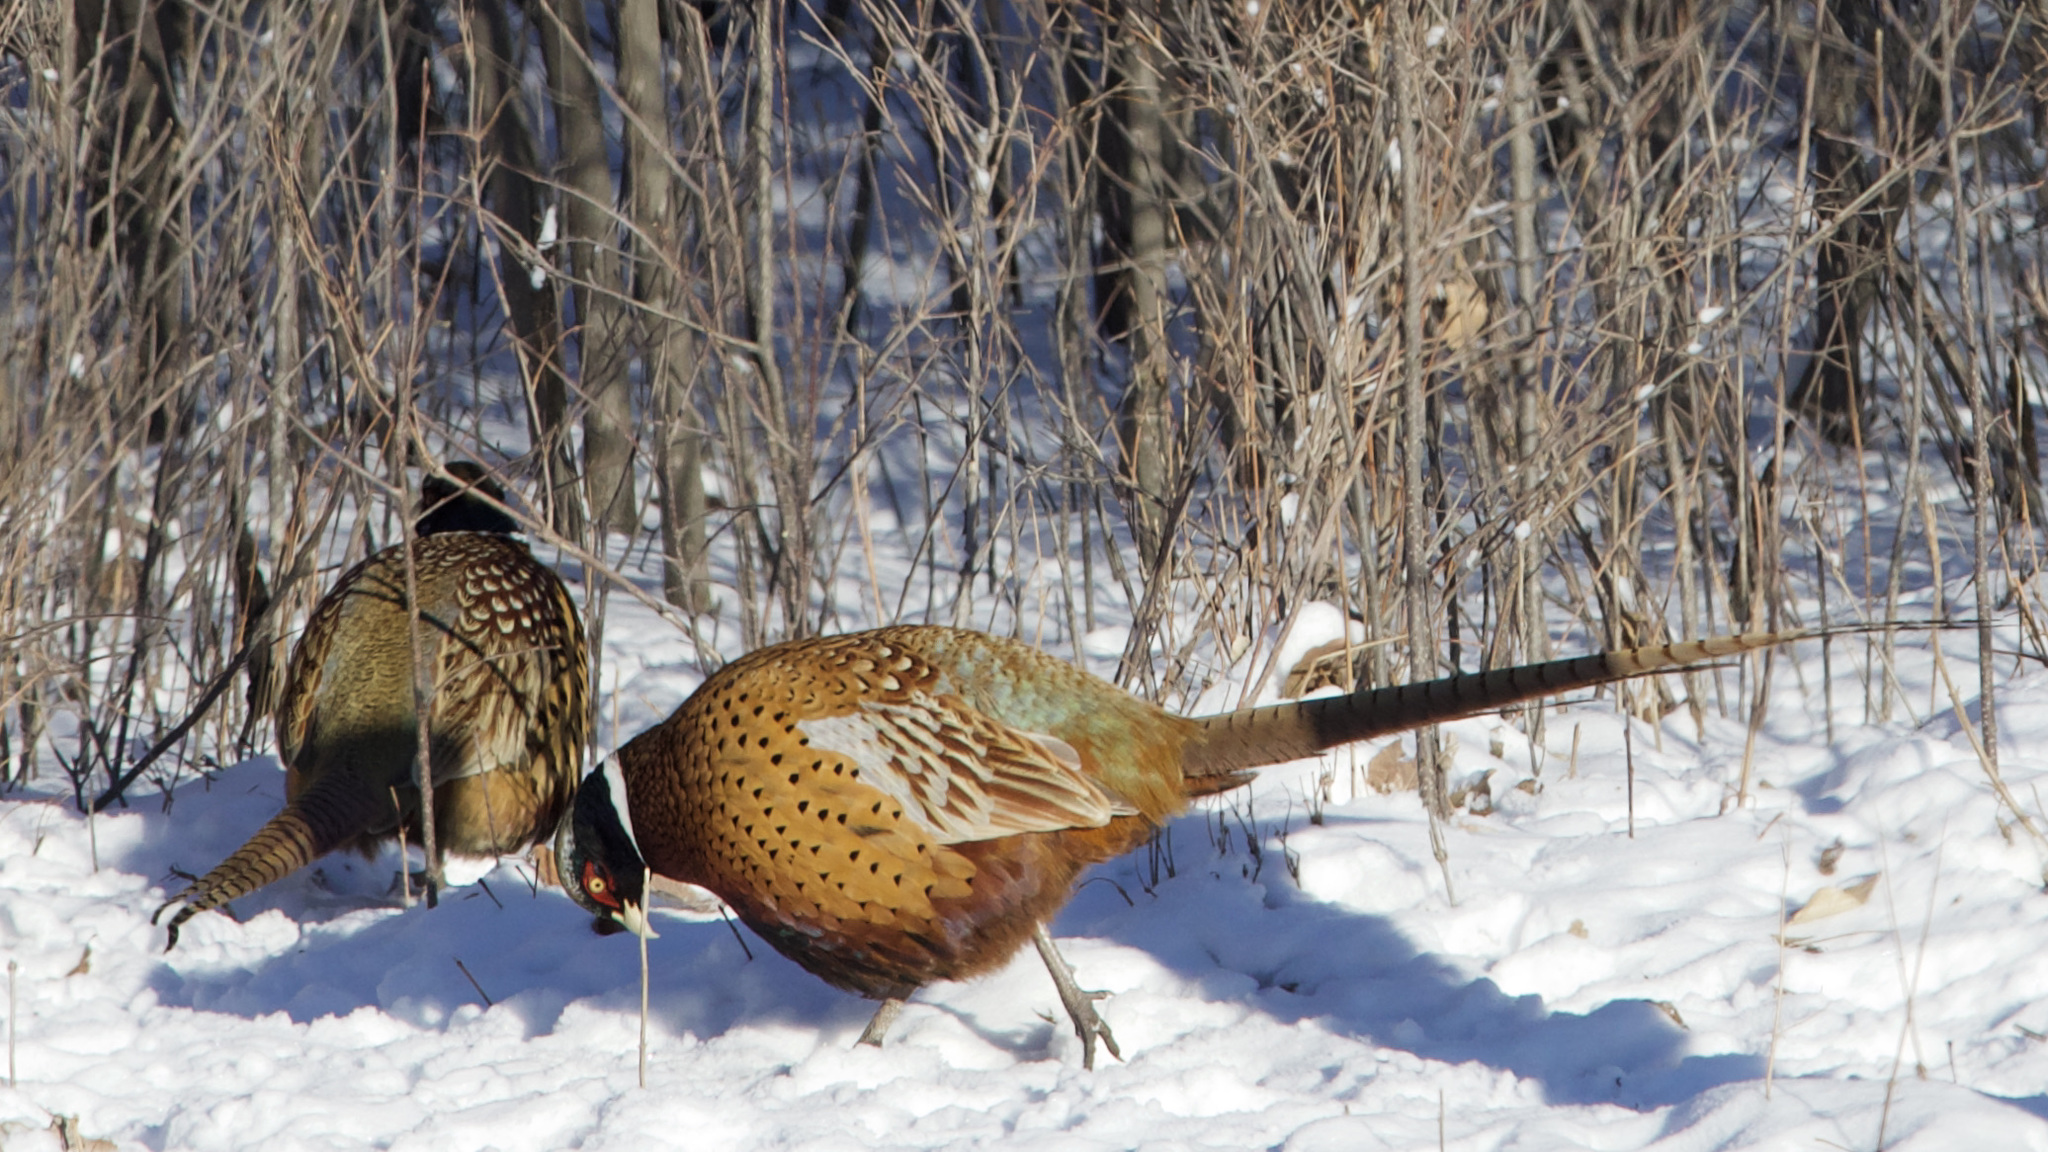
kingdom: Animalia
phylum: Chordata
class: Aves
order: Galliformes
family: Phasianidae
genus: Phasianus
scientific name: Phasianus colchicus
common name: Common pheasant
